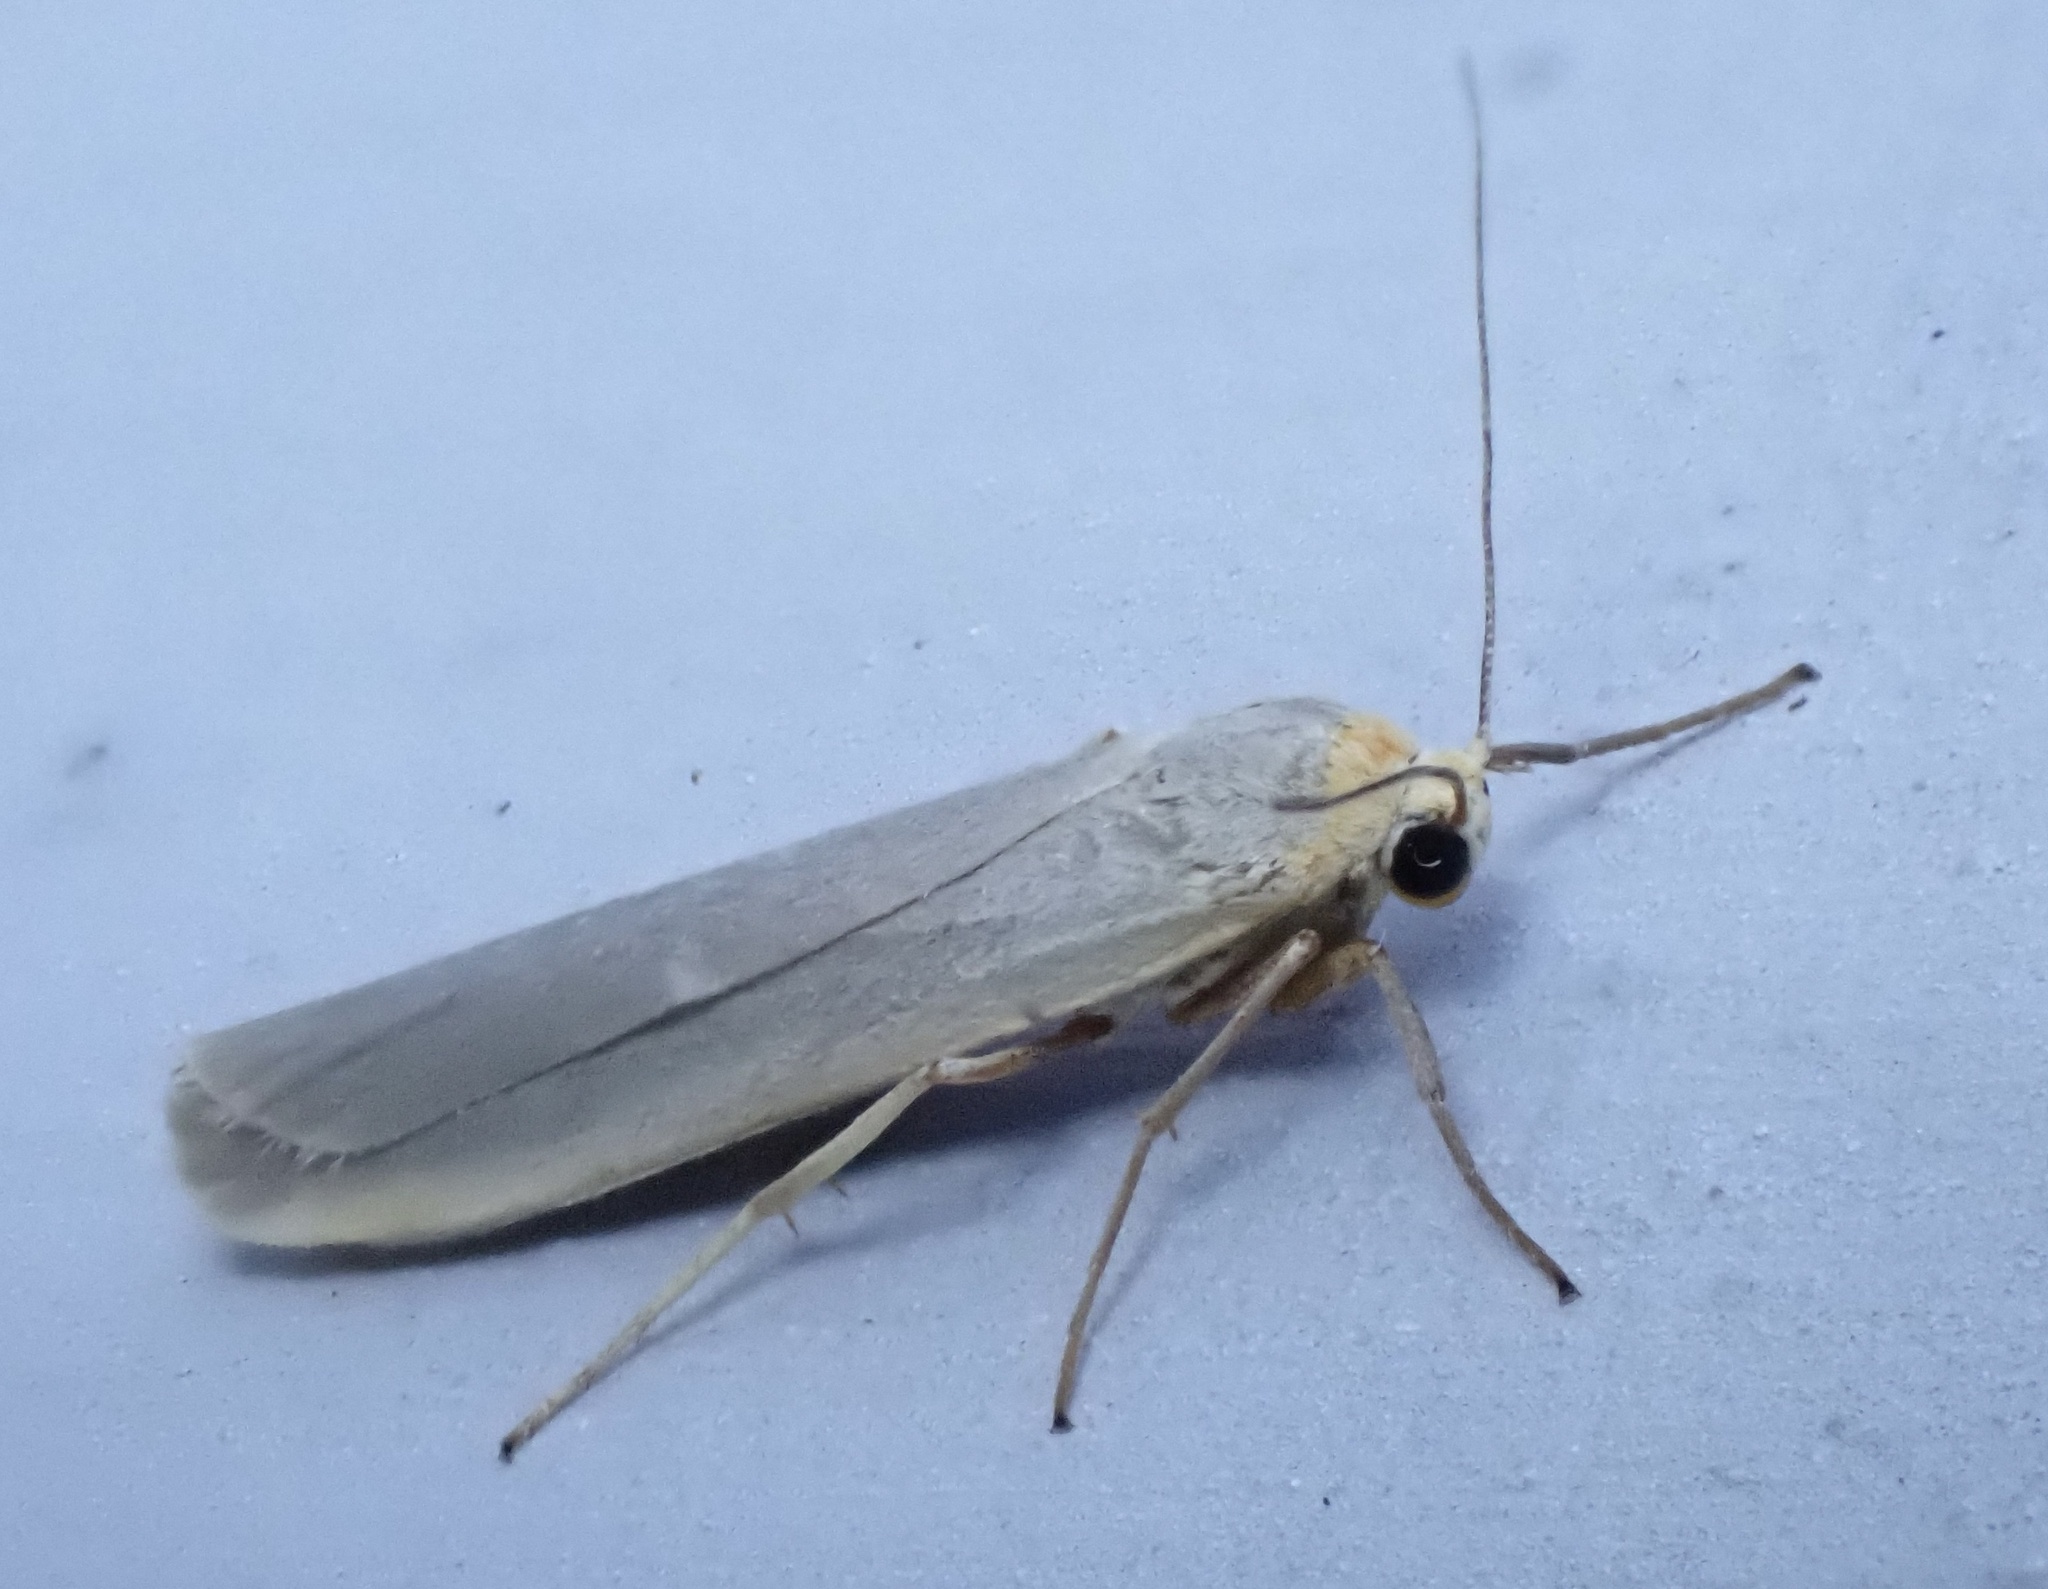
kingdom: Animalia
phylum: Arthropoda
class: Insecta
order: Lepidoptera
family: Erebidae
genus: Eilema
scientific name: Eilema caniola
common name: Hoary footman
